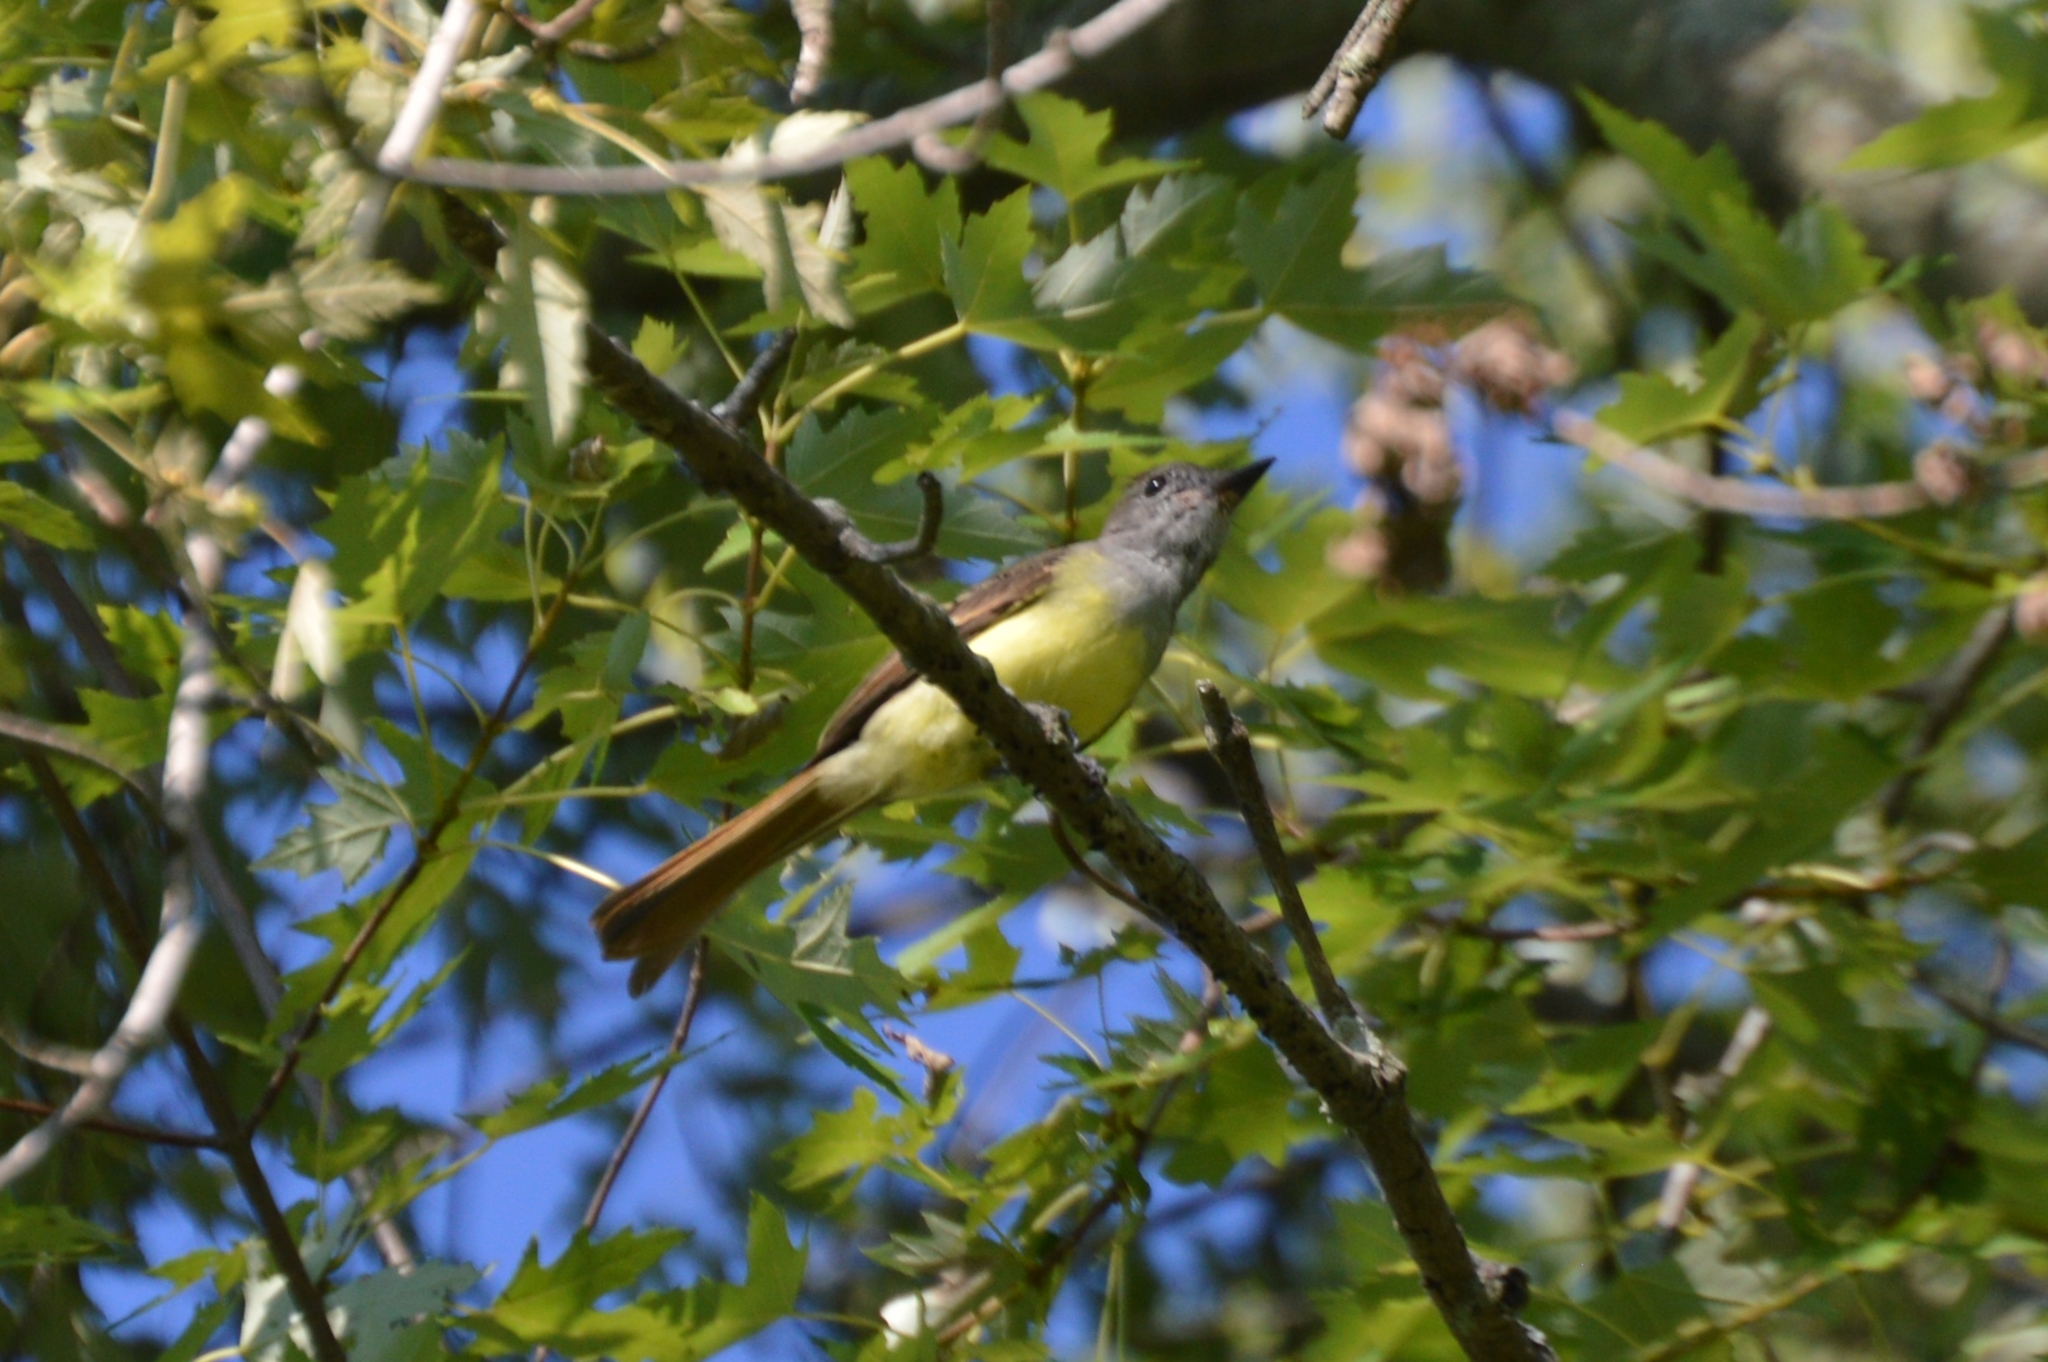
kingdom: Animalia
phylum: Chordata
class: Aves
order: Passeriformes
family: Tyrannidae
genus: Myiarchus
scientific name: Myiarchus crinitus
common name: Great crested flycatcher
